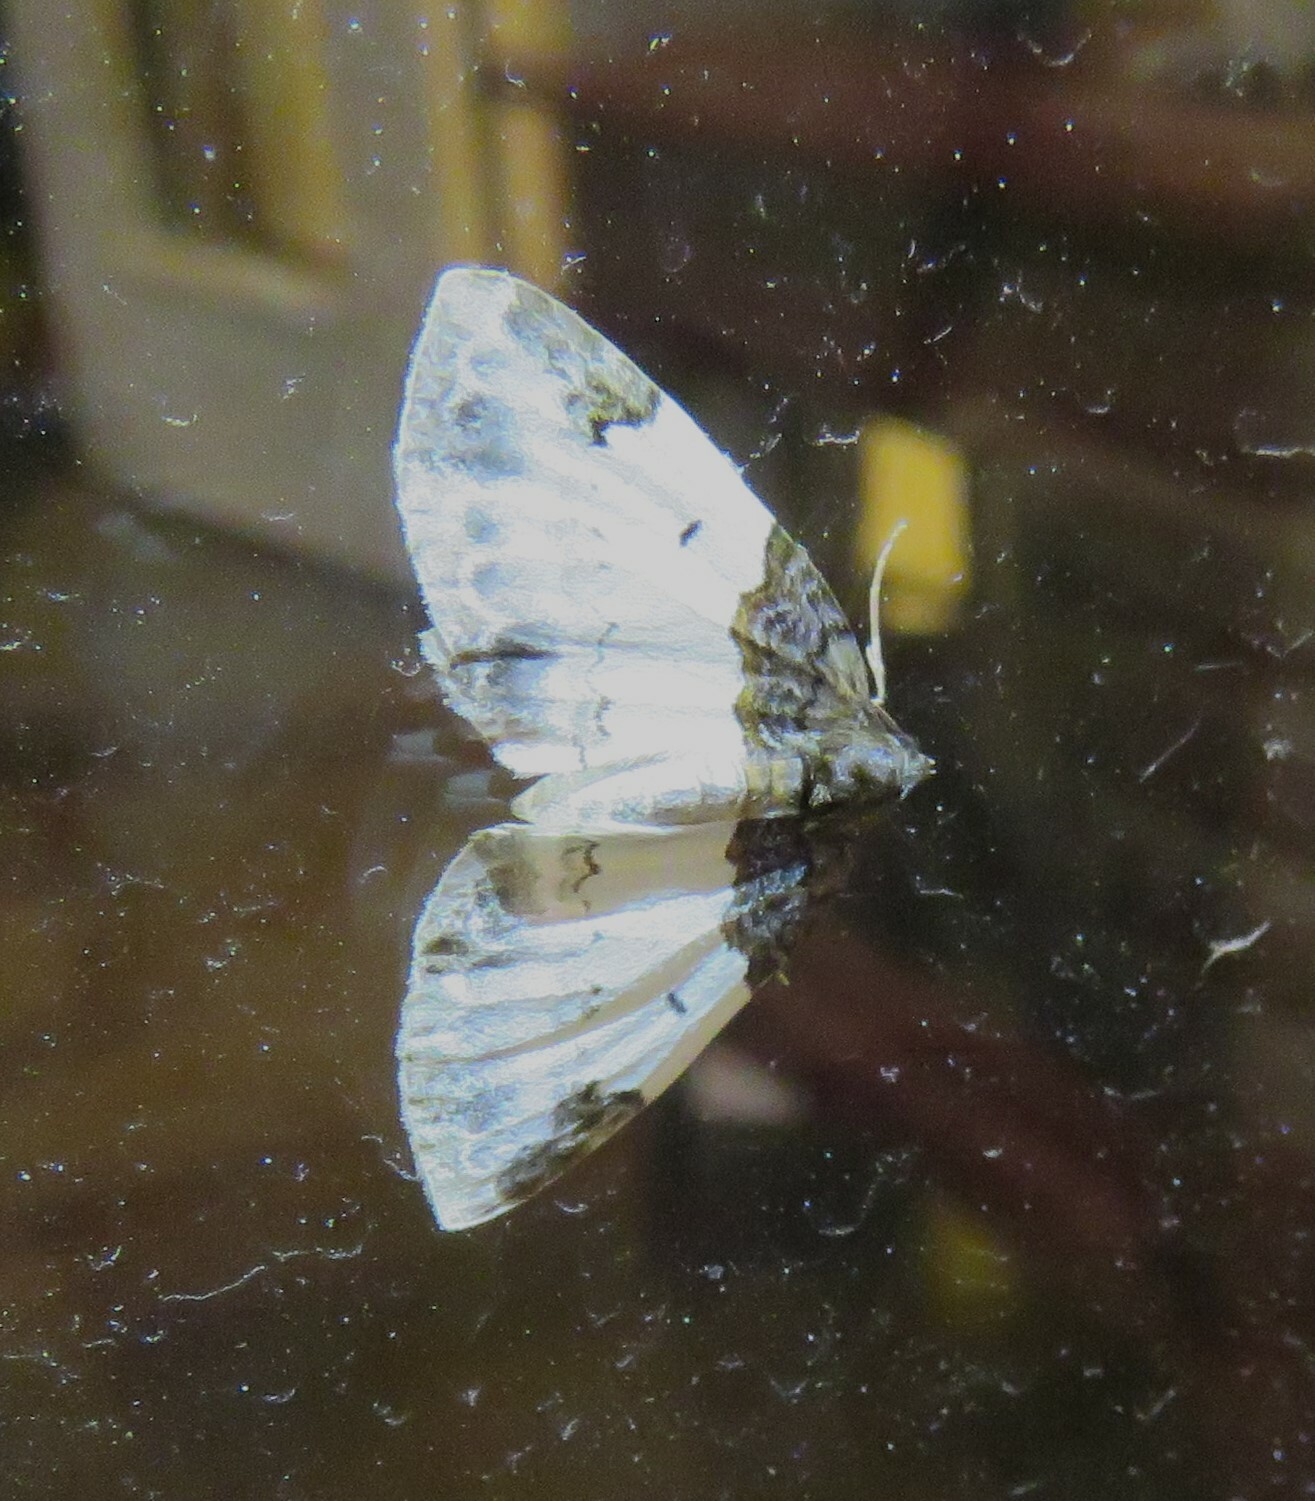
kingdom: Animalia
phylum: Arthropoda
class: Insecta
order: Lepidoptera
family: Geometridae
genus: Mesoleuca
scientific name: Mesoleuca ruficillata
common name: White-ribboned carpet moth
